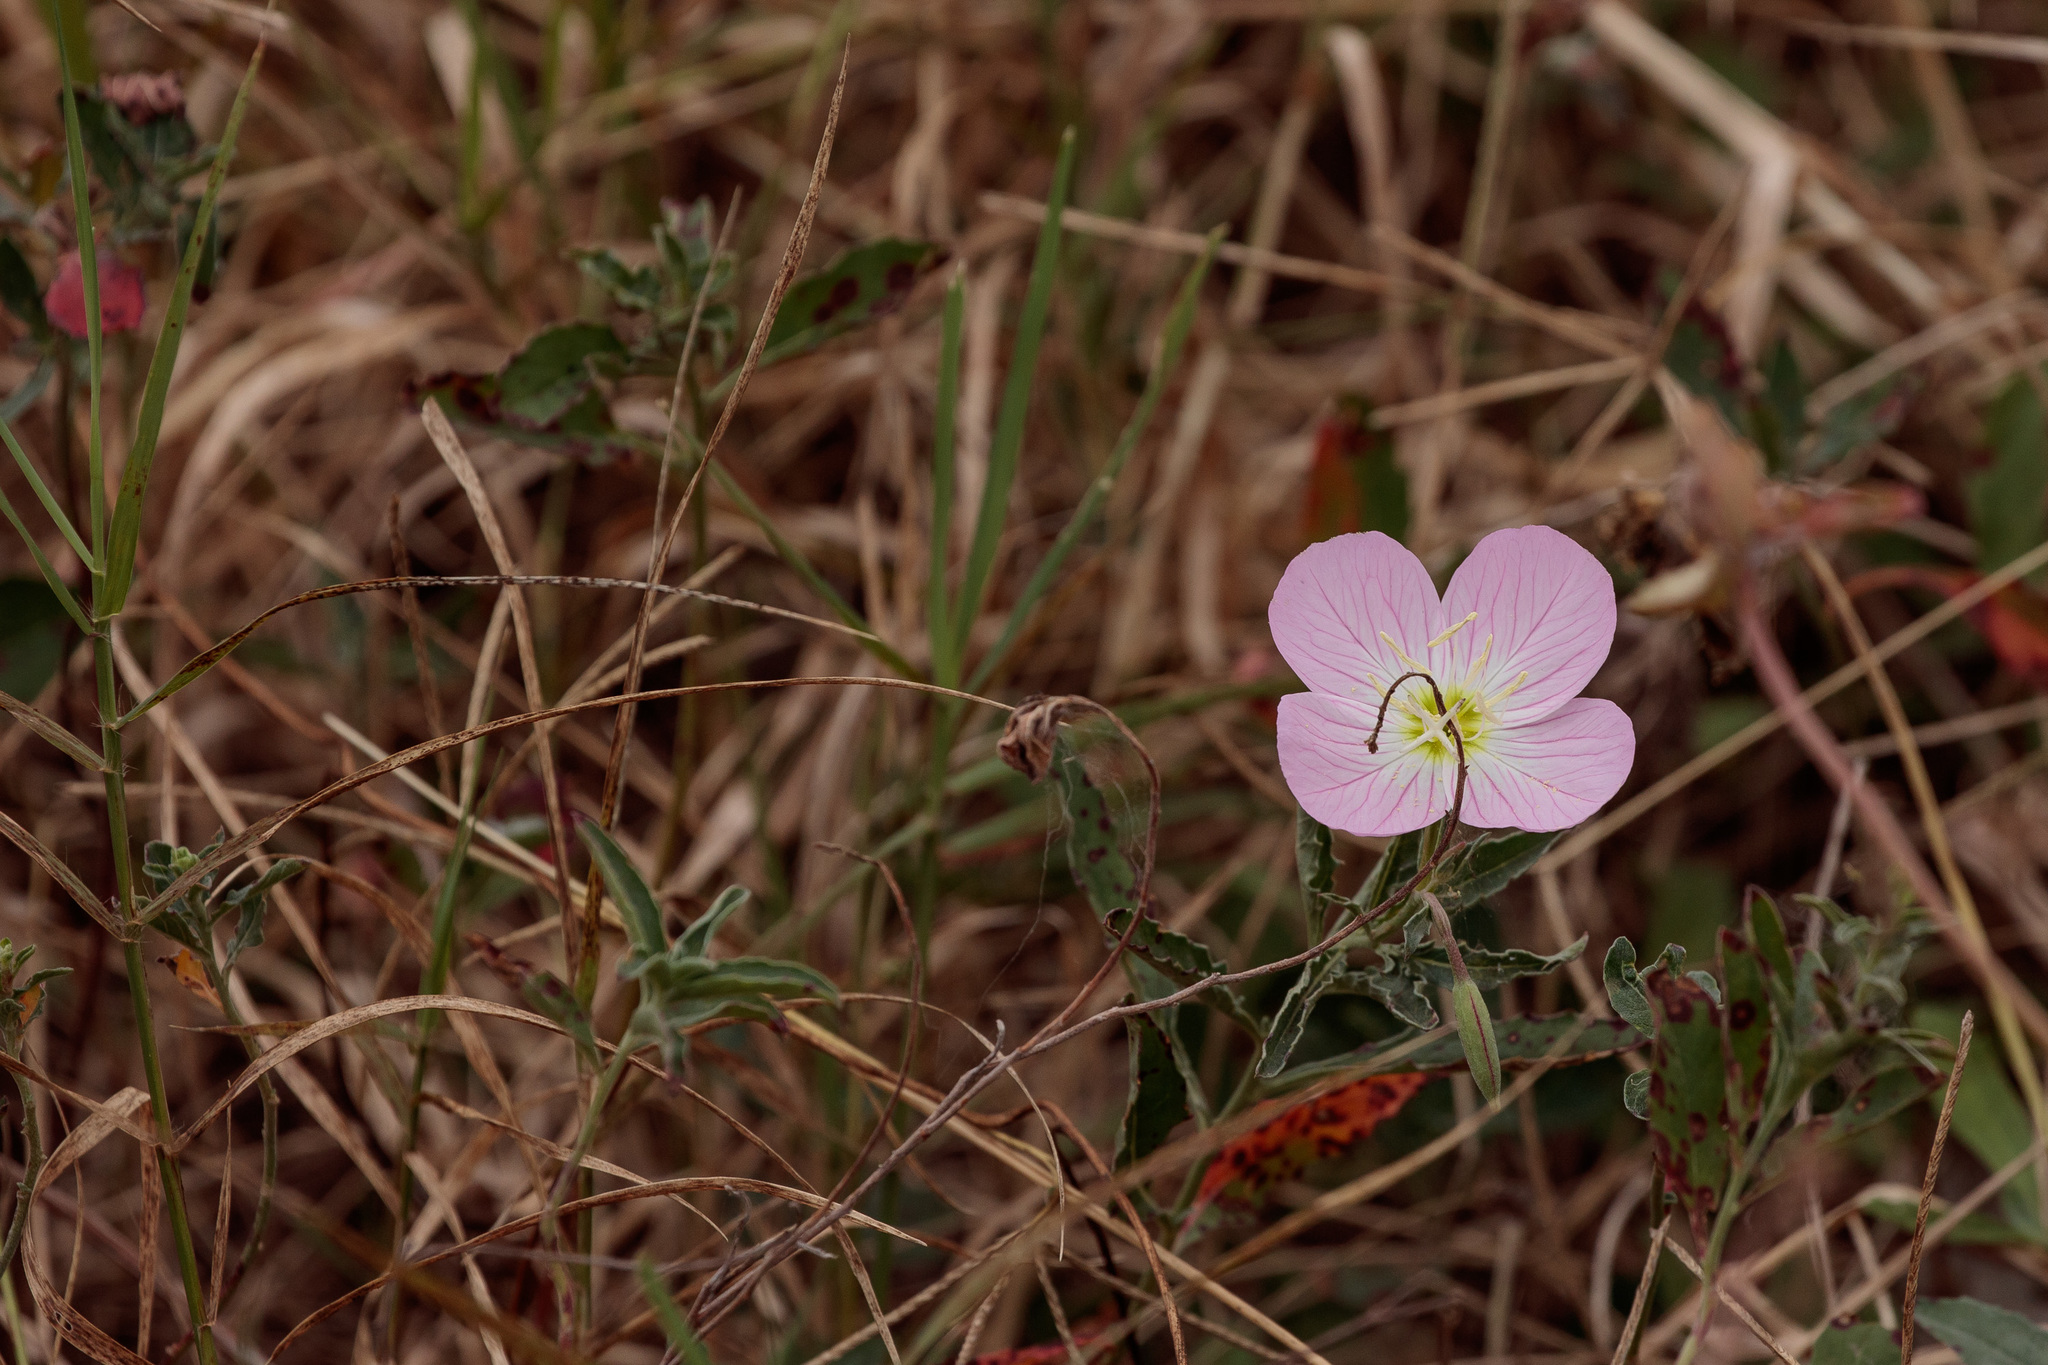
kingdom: Plantae
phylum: Tracheophyta
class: Magnoliopsida
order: Myrtales
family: Onagraceae
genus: Oenothera
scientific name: Oenothera speciosa
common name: White evening-primrose
